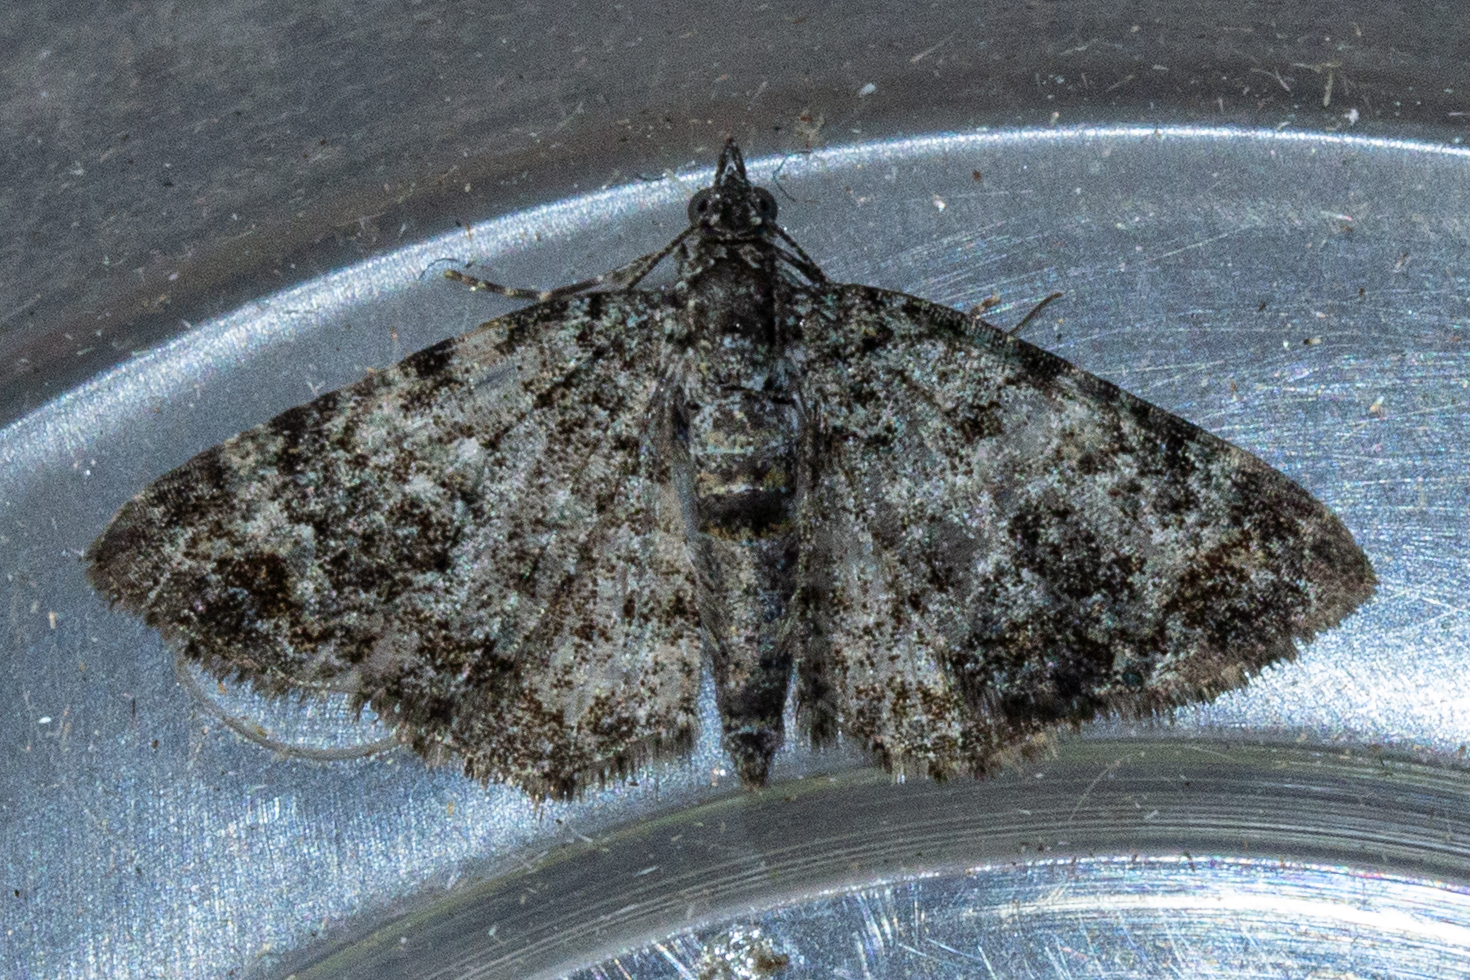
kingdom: Animalia
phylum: Arthropoda
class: Insecta
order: Lepidoptera
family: Geometridae
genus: Chloroclystis
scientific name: Chloroclystis nereis
